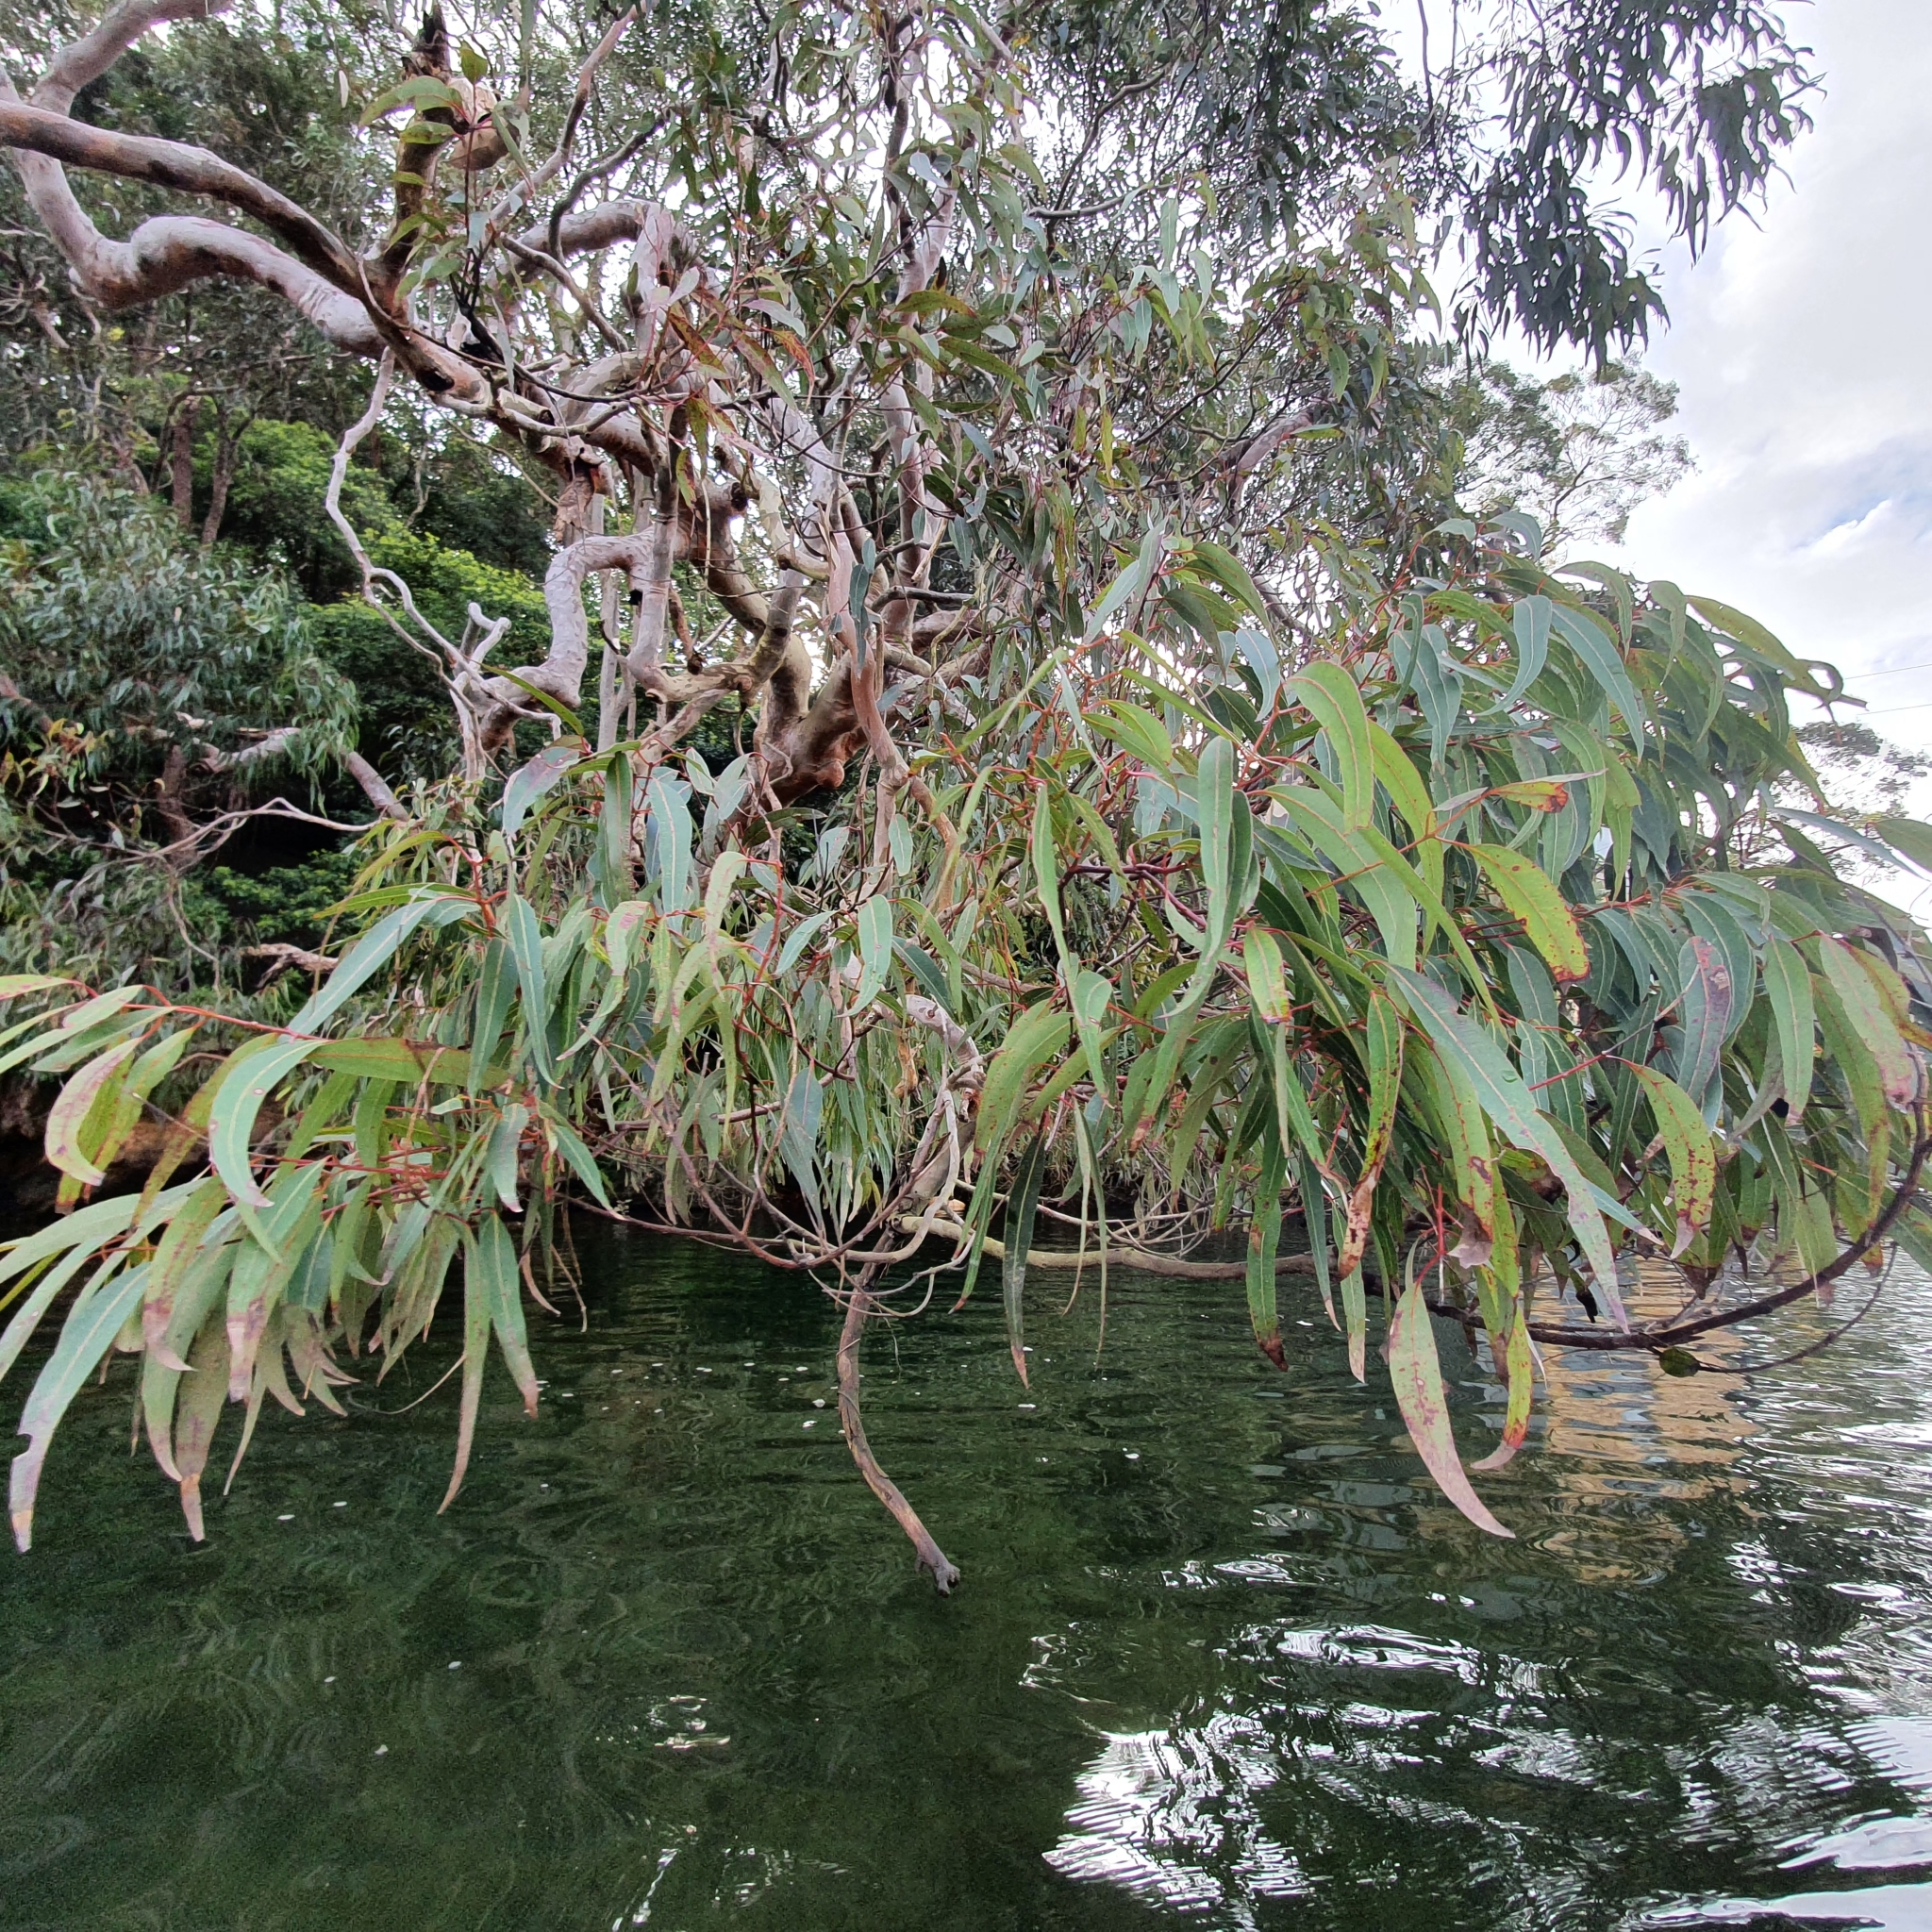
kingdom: Plantae
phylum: Tracheophyta
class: Magnoliopsida
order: Myrtales
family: Myrtaceae
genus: Angophora
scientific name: Angophora costata
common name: Gum myrtle
